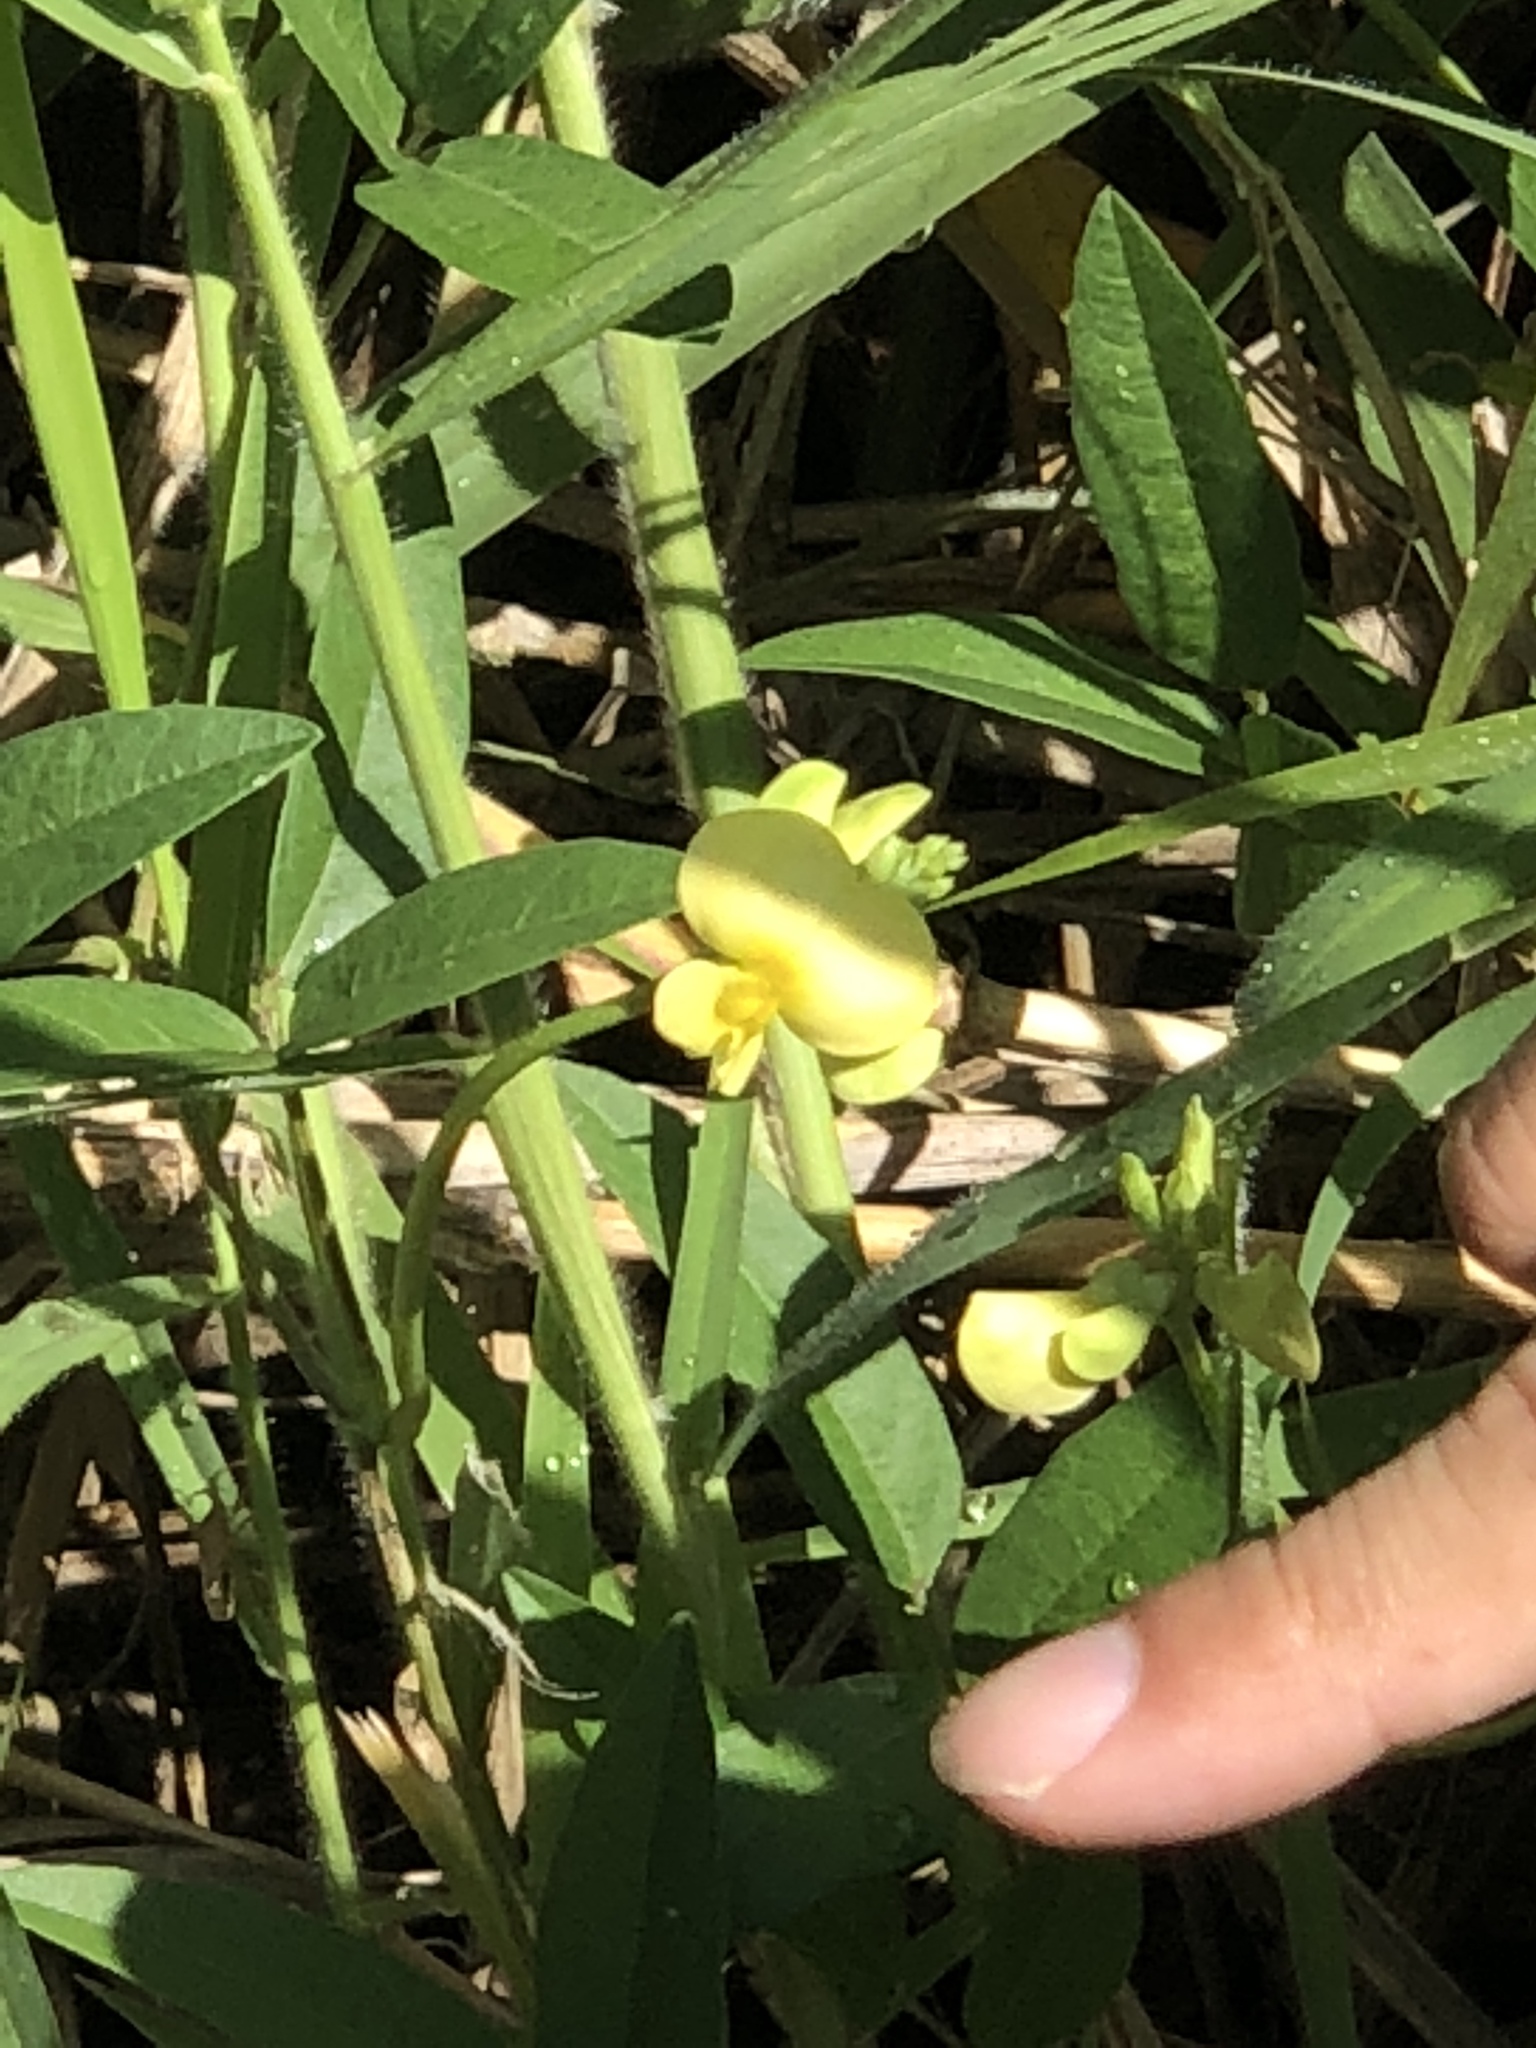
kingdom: Plantae
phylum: Tracheophyta
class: Magnoliopsida
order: Fabales
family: Fabaceae
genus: Vigna
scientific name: Vigna luteola
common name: Hairypod cowpea
